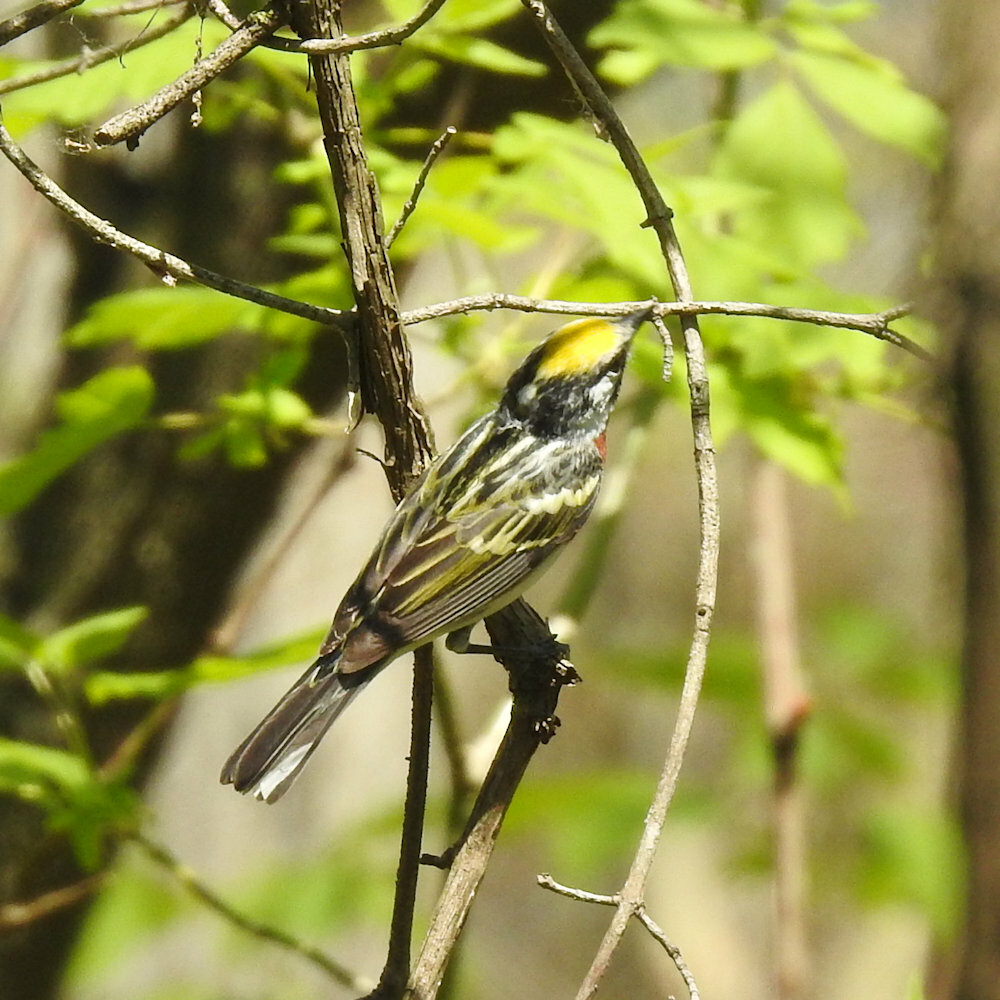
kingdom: Animalia
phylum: Chordata
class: Aves
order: Passeriformes
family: Parulidae
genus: Setophaga
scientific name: Setophaga pensylvanica
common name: Chestnut-sided warbler
